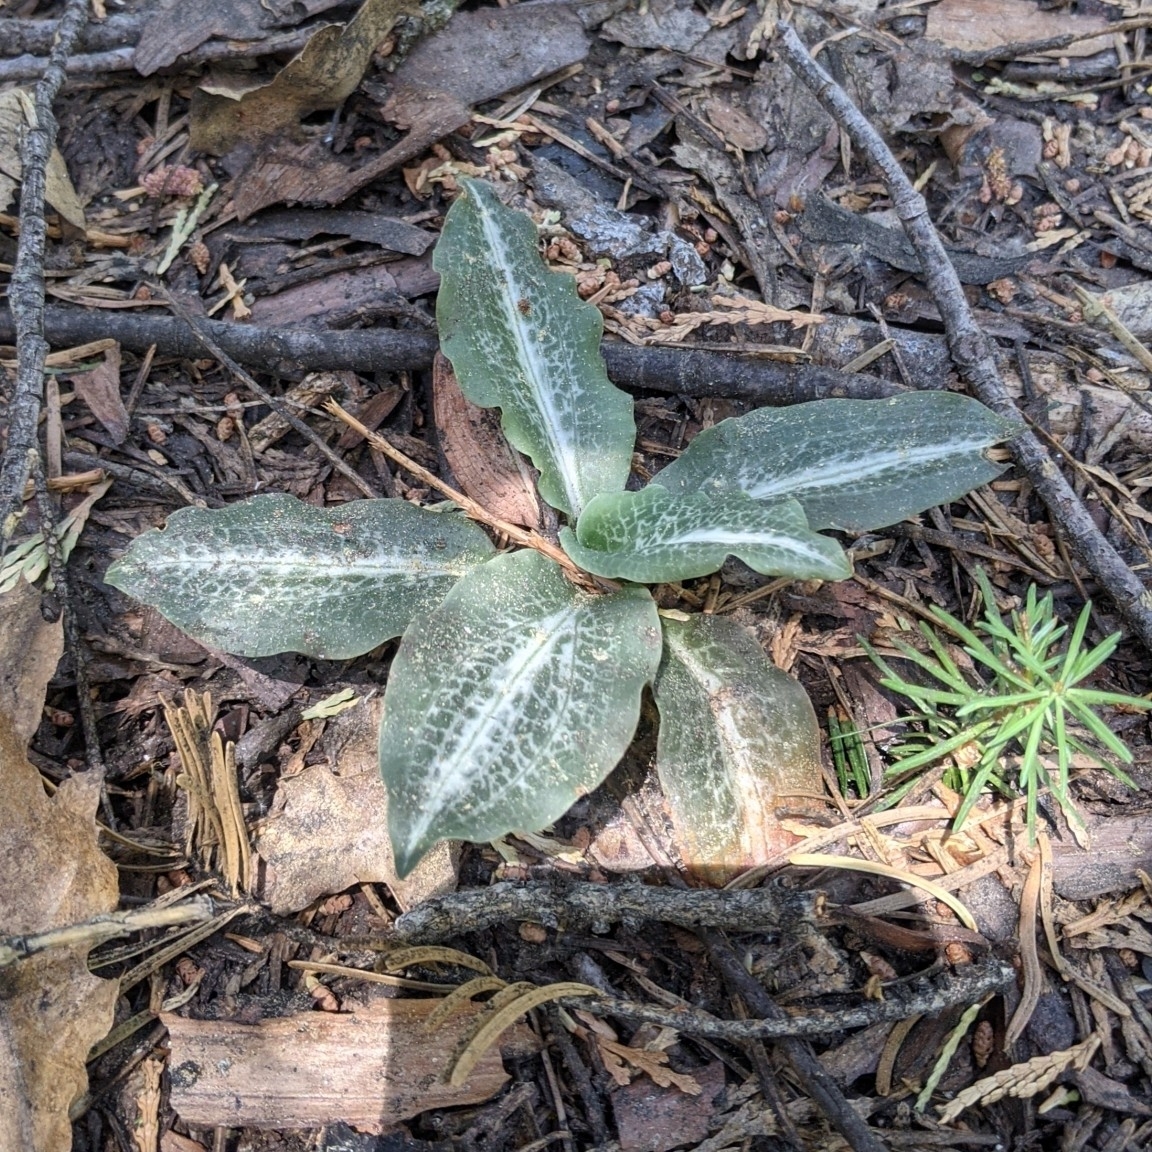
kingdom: Plantae
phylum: Tracheophyta
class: Liliopsida
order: Asparagales
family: Orchidaceae
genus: Goodyera
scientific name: Goodyera oblongifolia
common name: Giant rattlesnake-plantain
